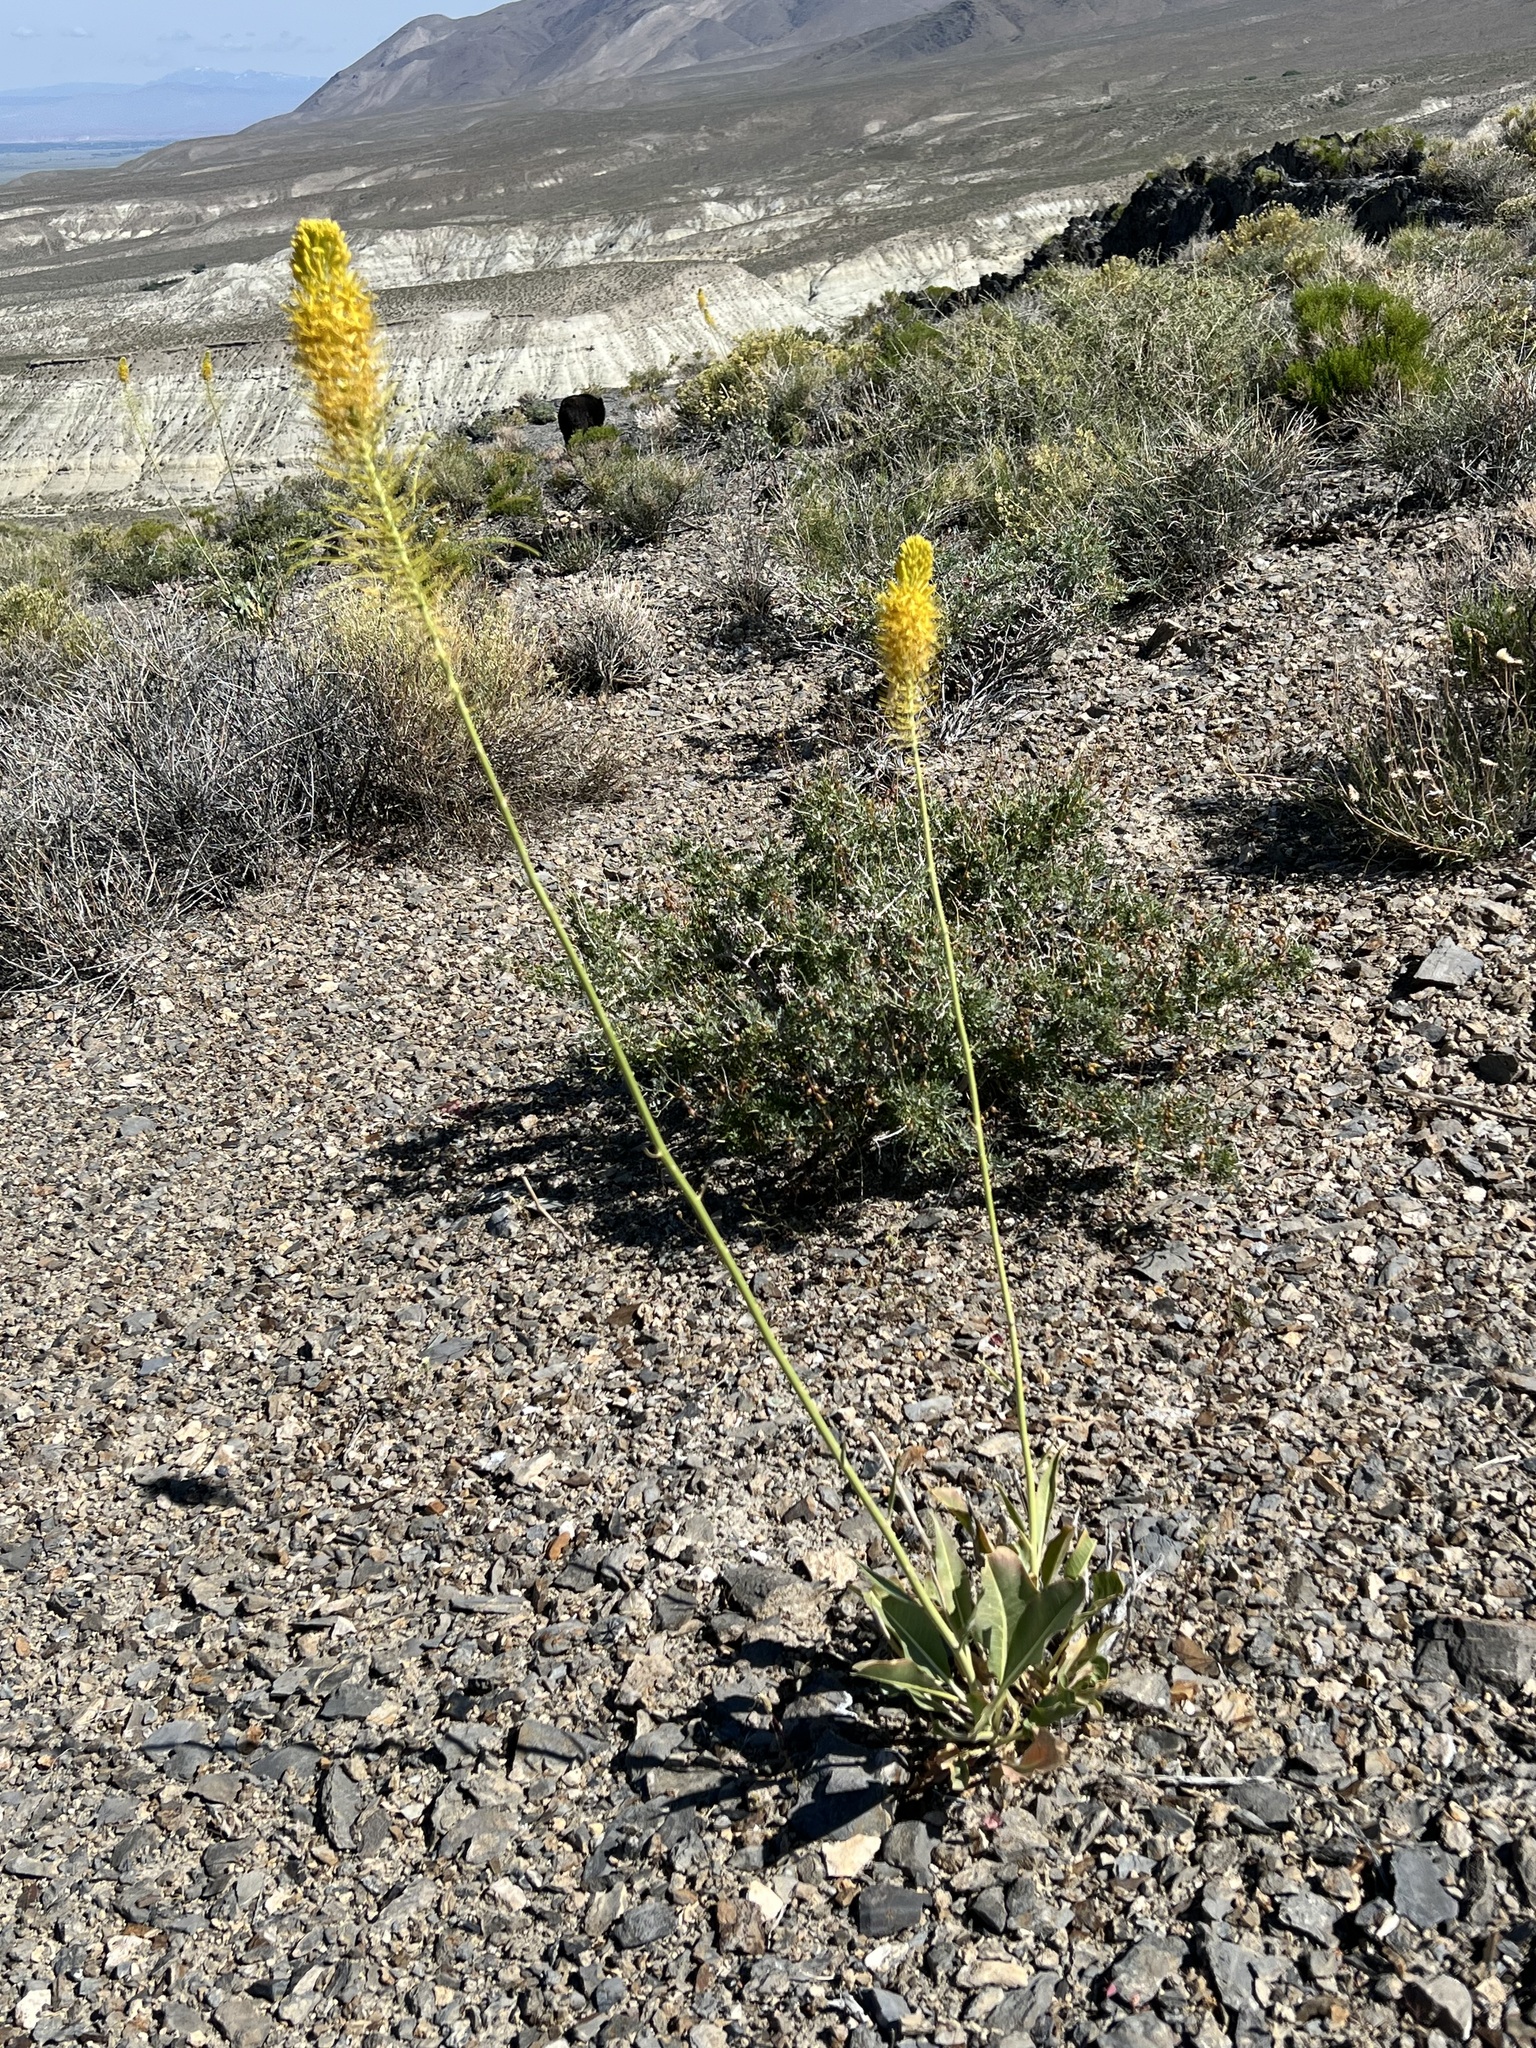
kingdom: Plantae
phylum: Tracheophyta
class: Magnoliopsida
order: Brassicales
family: Brassicaceae
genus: Stanleya
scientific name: Stanleya elata
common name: Panamint prince's plume
